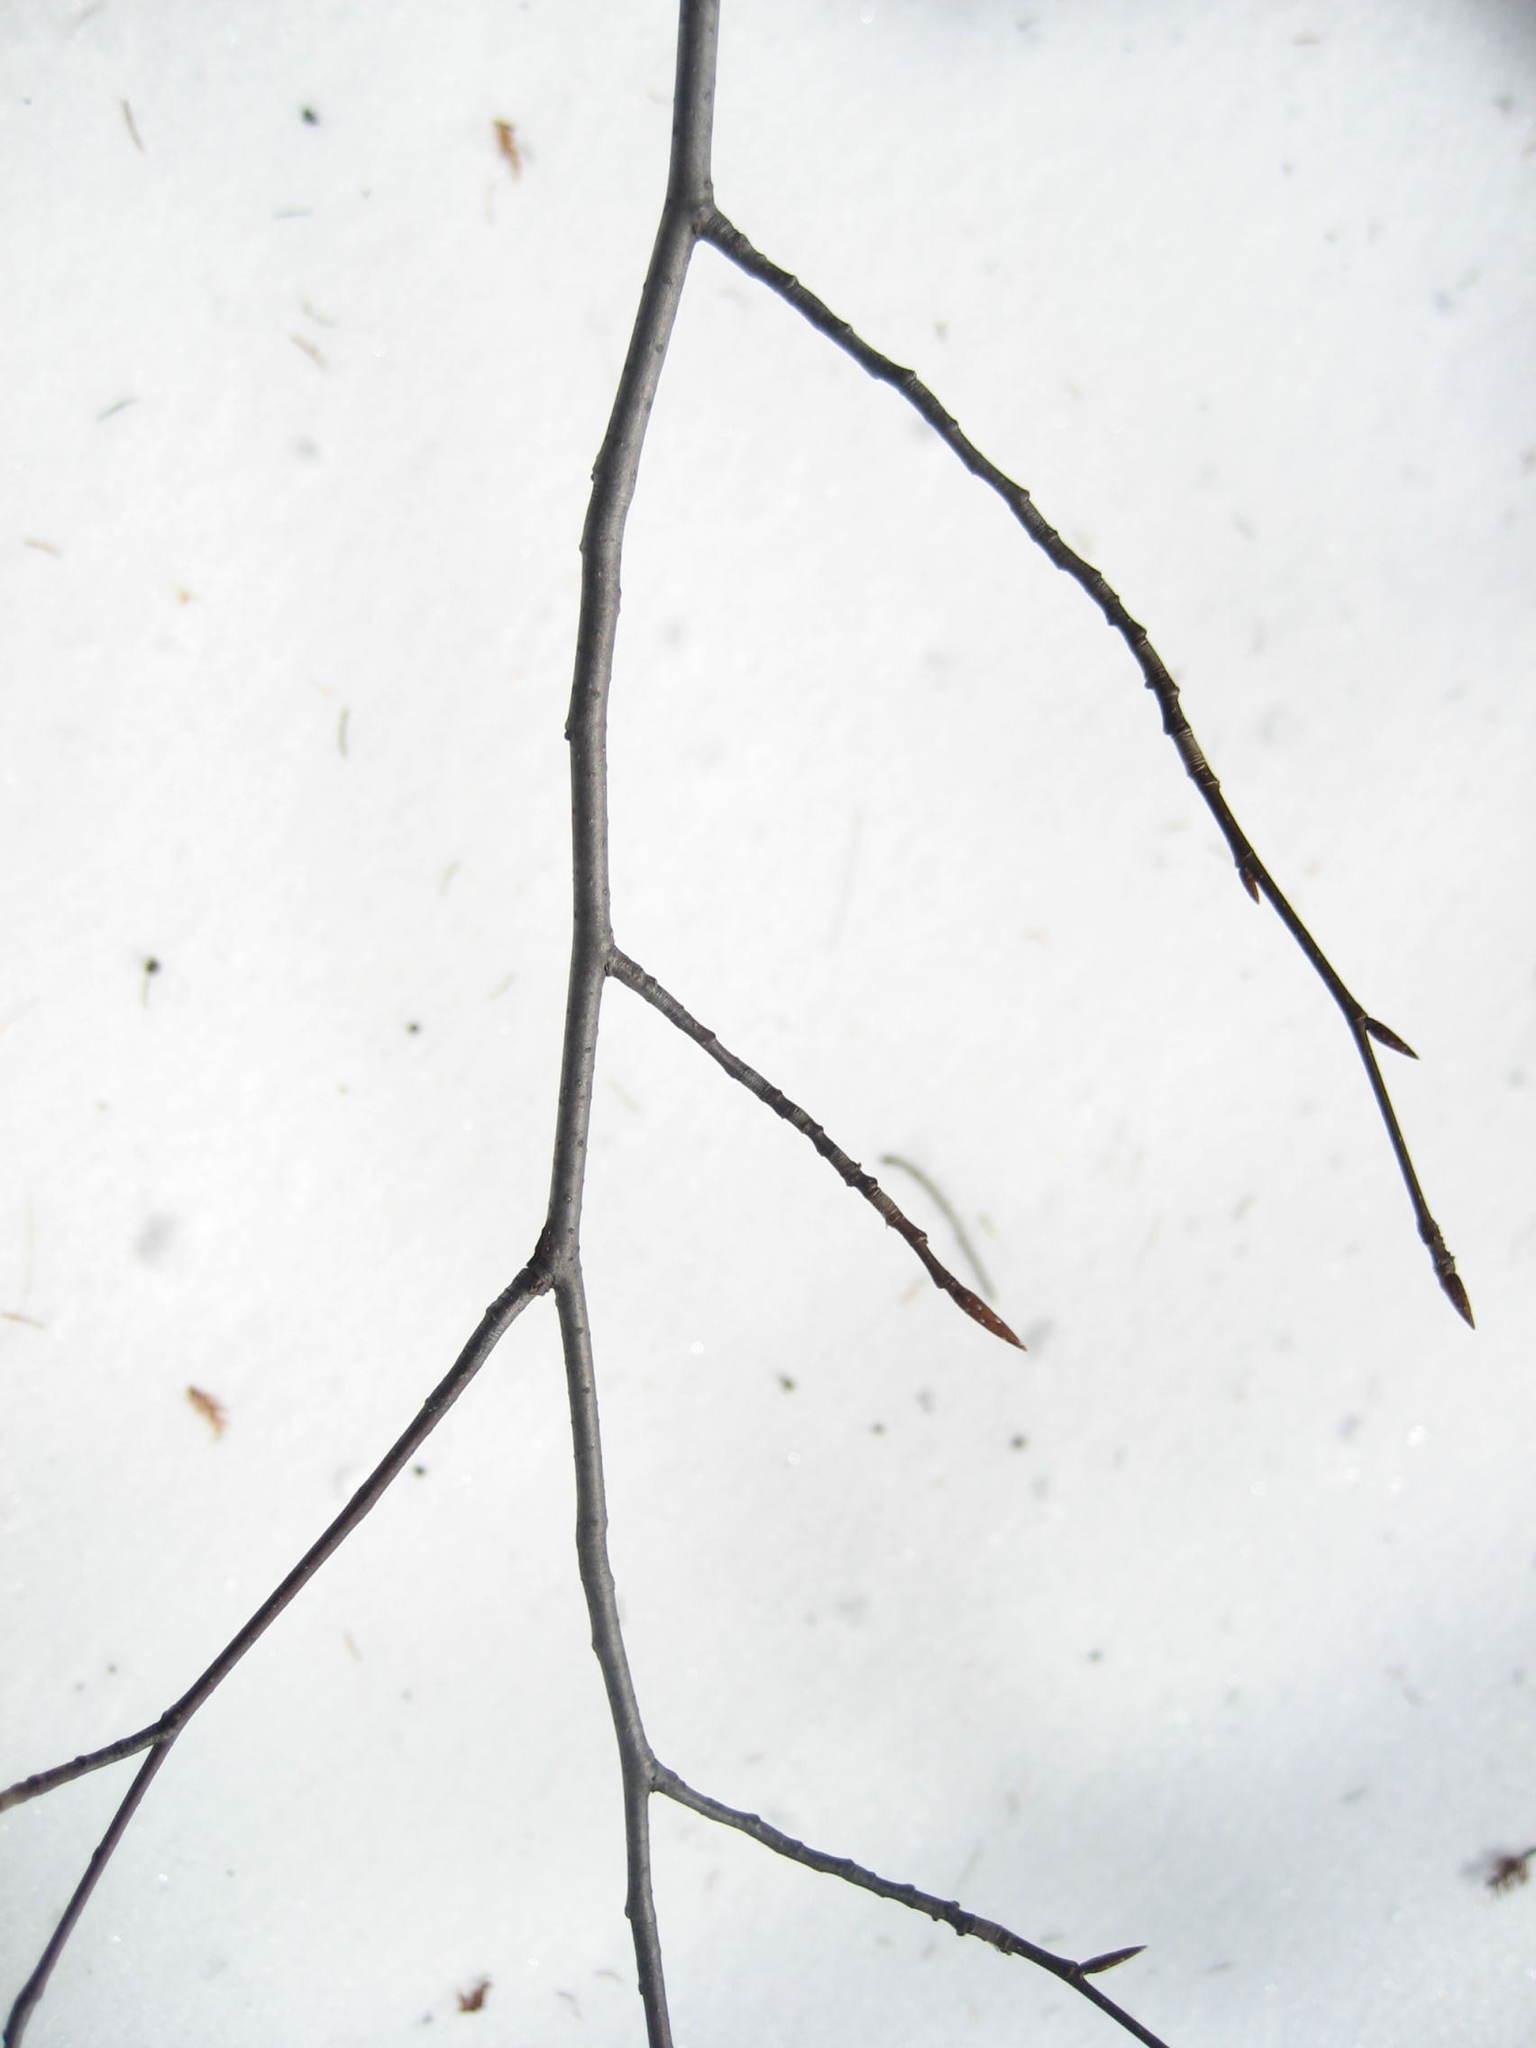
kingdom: Plantae
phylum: Tracheophyta
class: Magnoliopsida
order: Fagales
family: Fagaceae
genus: Fagus
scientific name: Fagus grandifolia
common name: American beech
